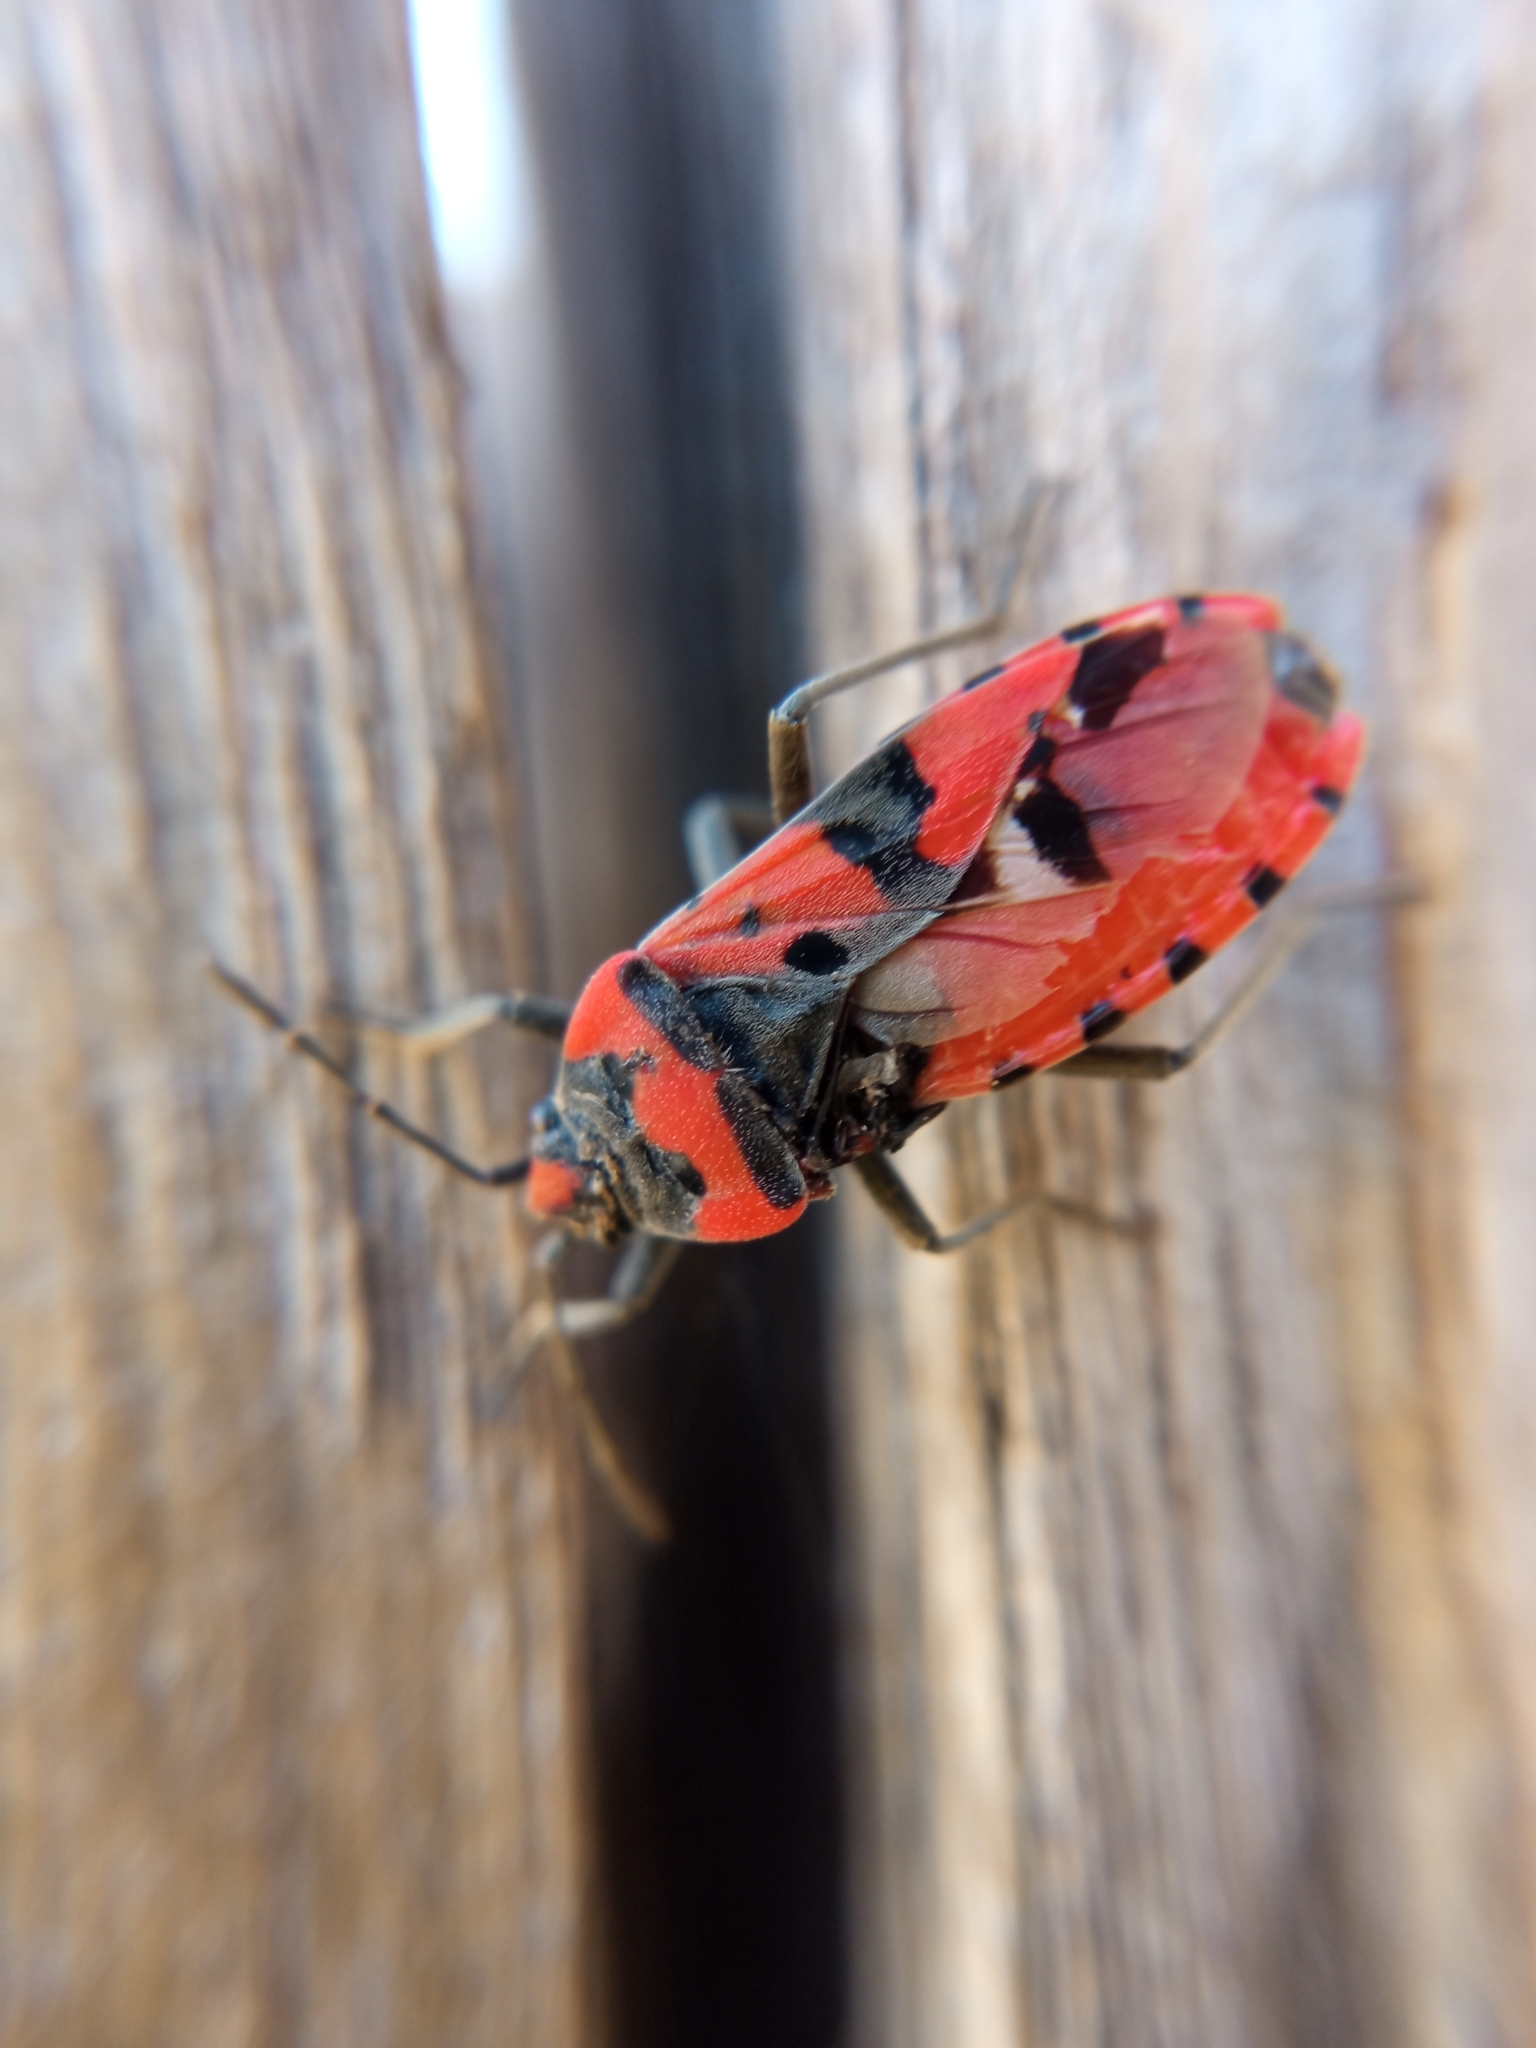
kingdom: Animalia
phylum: Arthropoda
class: Insecta
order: Hemiptera
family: Lygaeidae
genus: Lygaeus
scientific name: Lygaeus equestris
